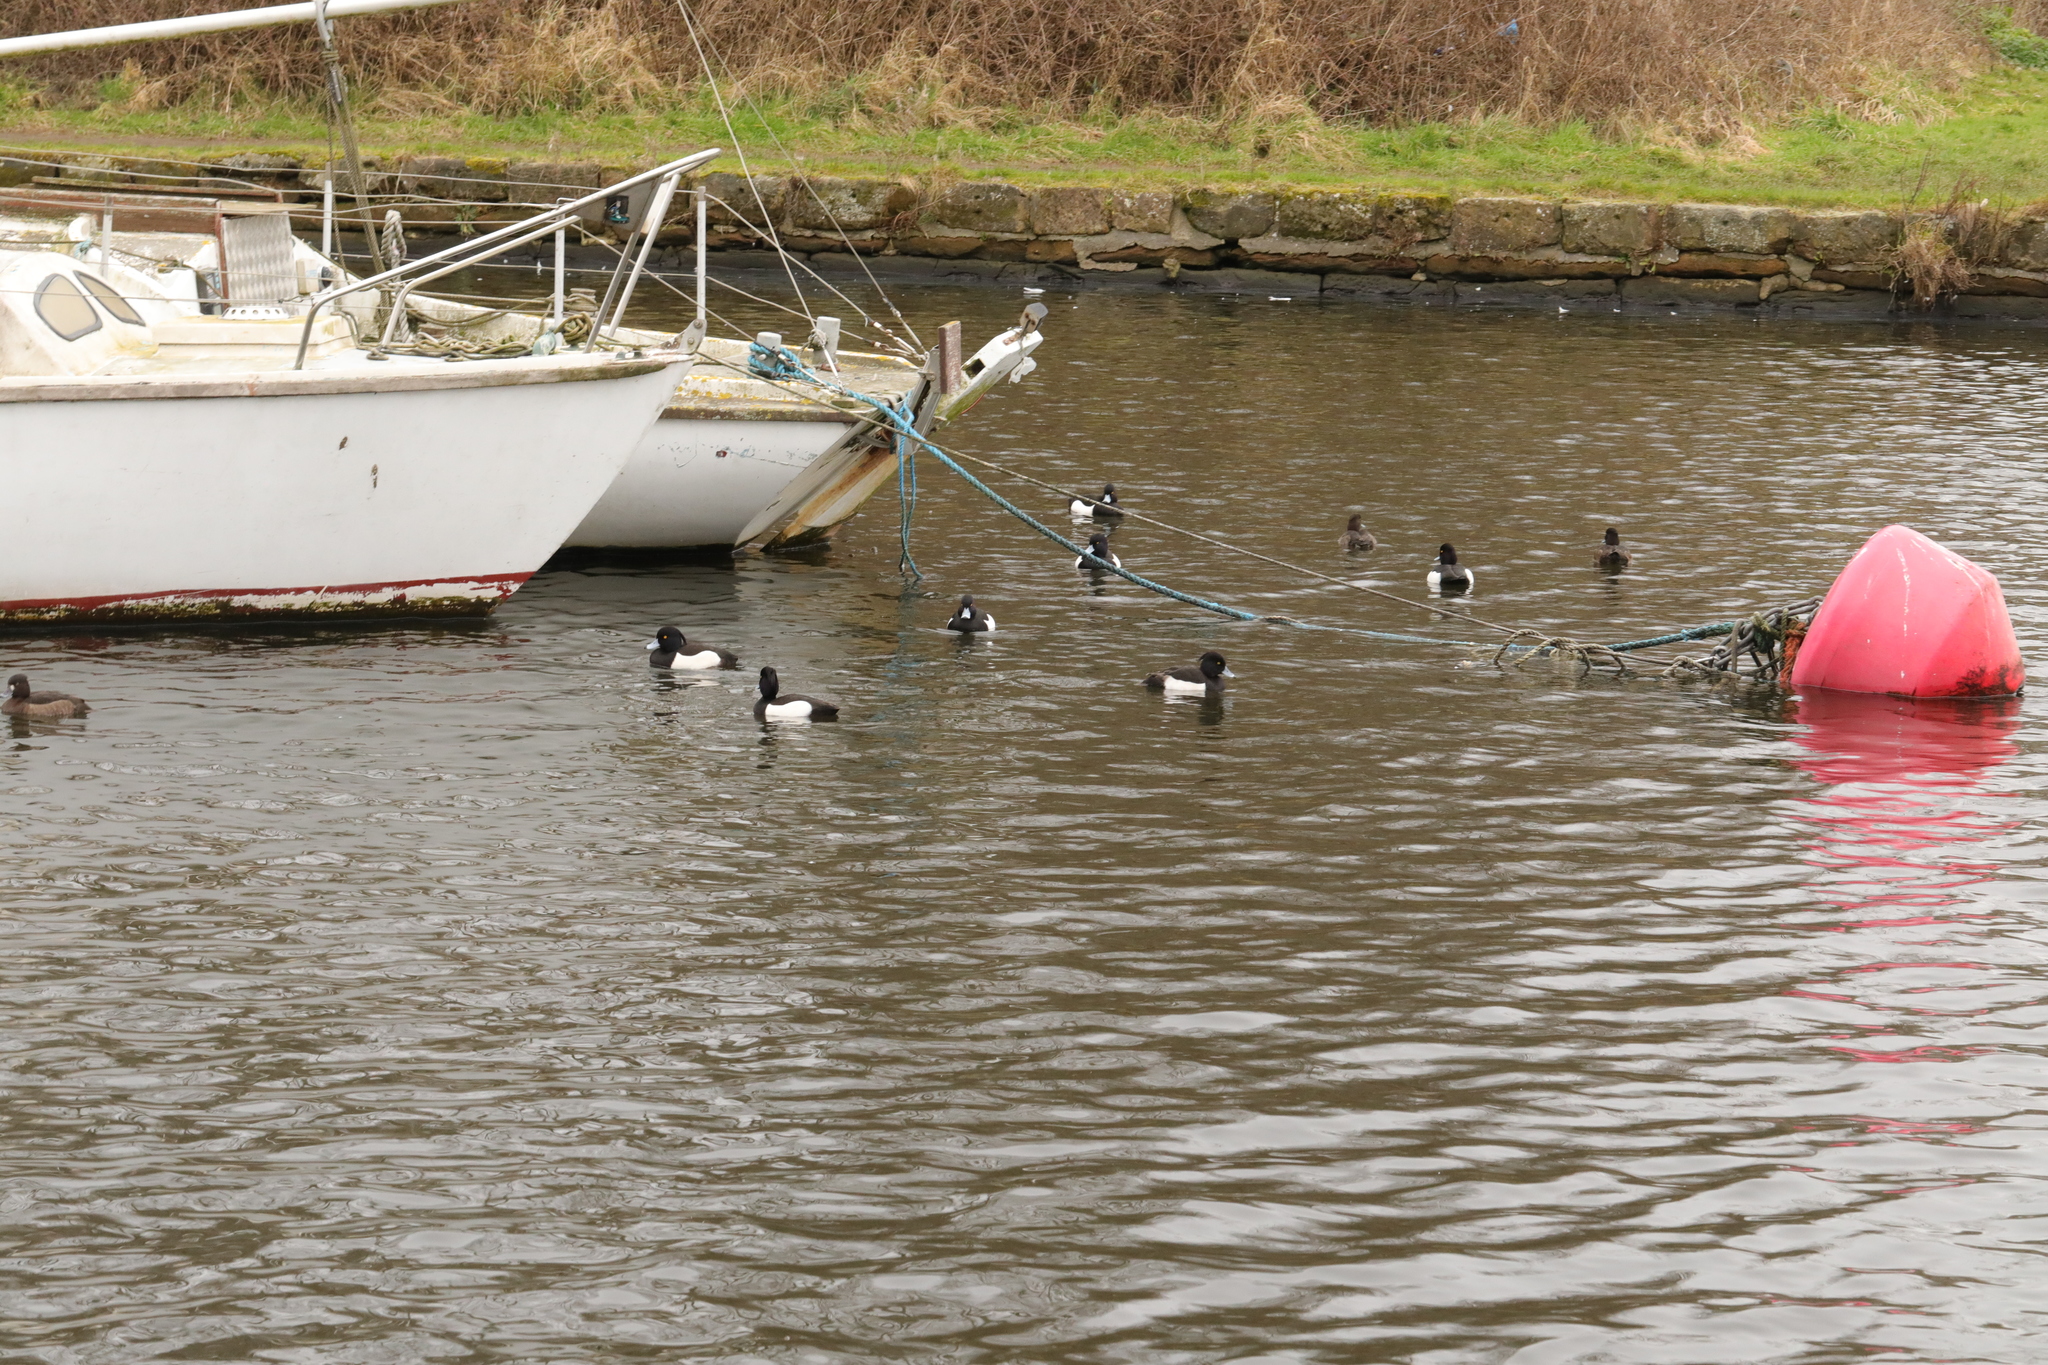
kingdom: Animalia
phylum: Chordata
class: Aves
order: Anseriformes
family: Anatidae
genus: Aythya
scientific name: Aythya fuligula
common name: Tufted duck
